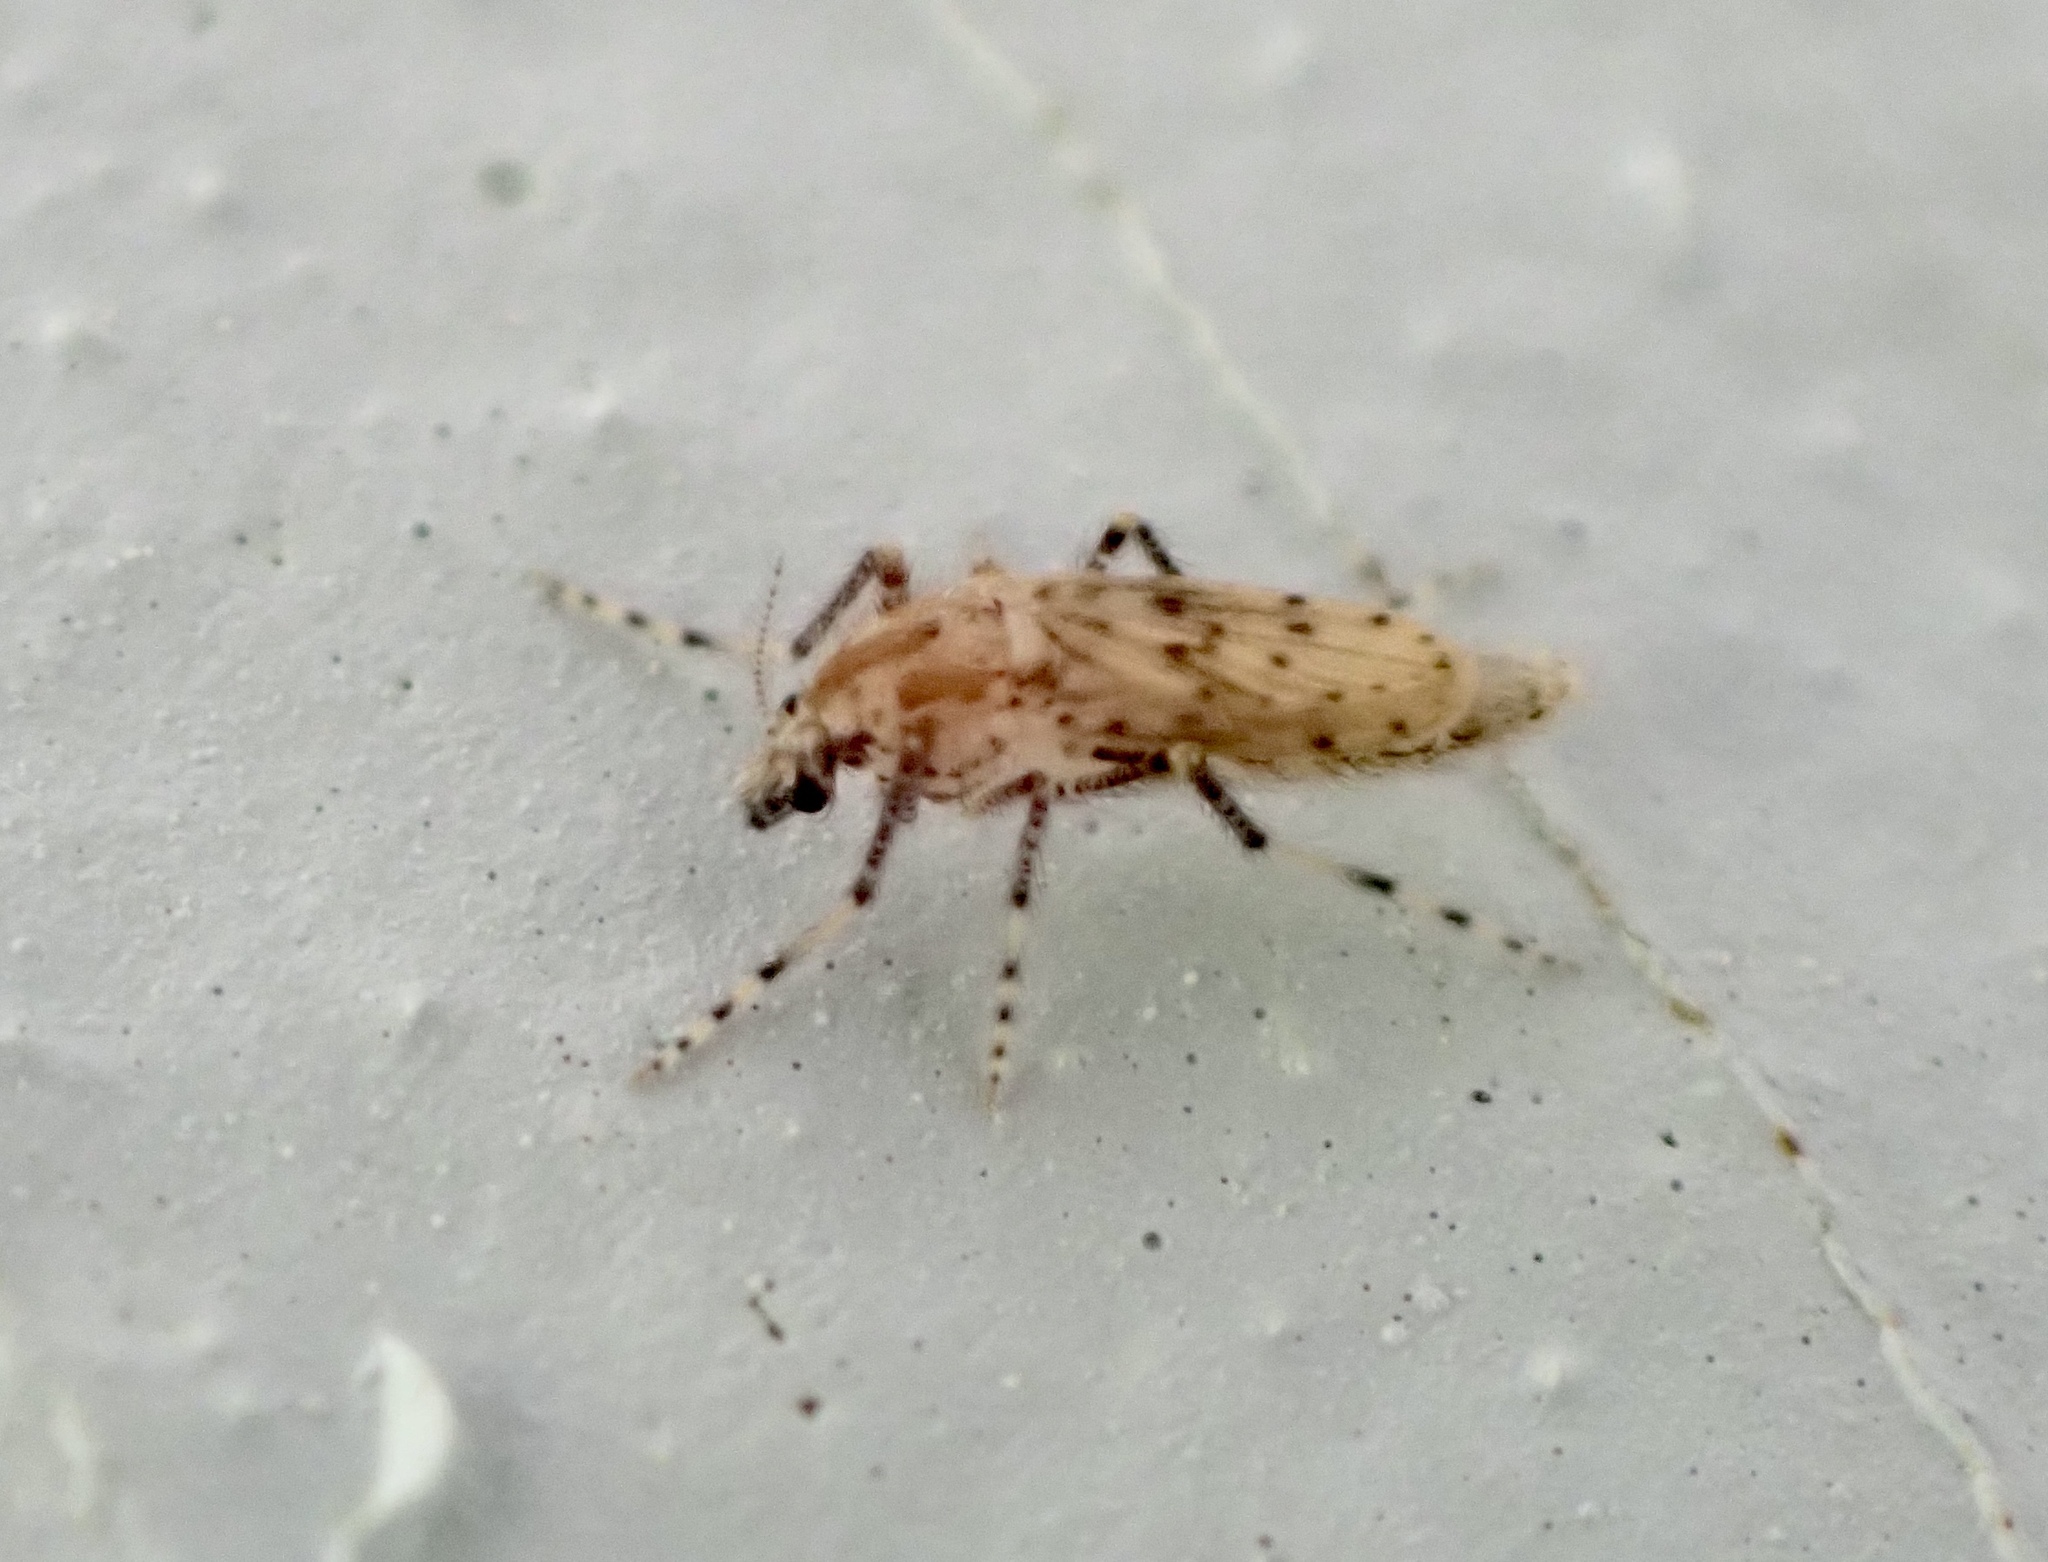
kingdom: Animalia
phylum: Arthropoda
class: Insecta
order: Diptera
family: Chaoboridae
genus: Chaoborus
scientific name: Chaoborus punctipennis
